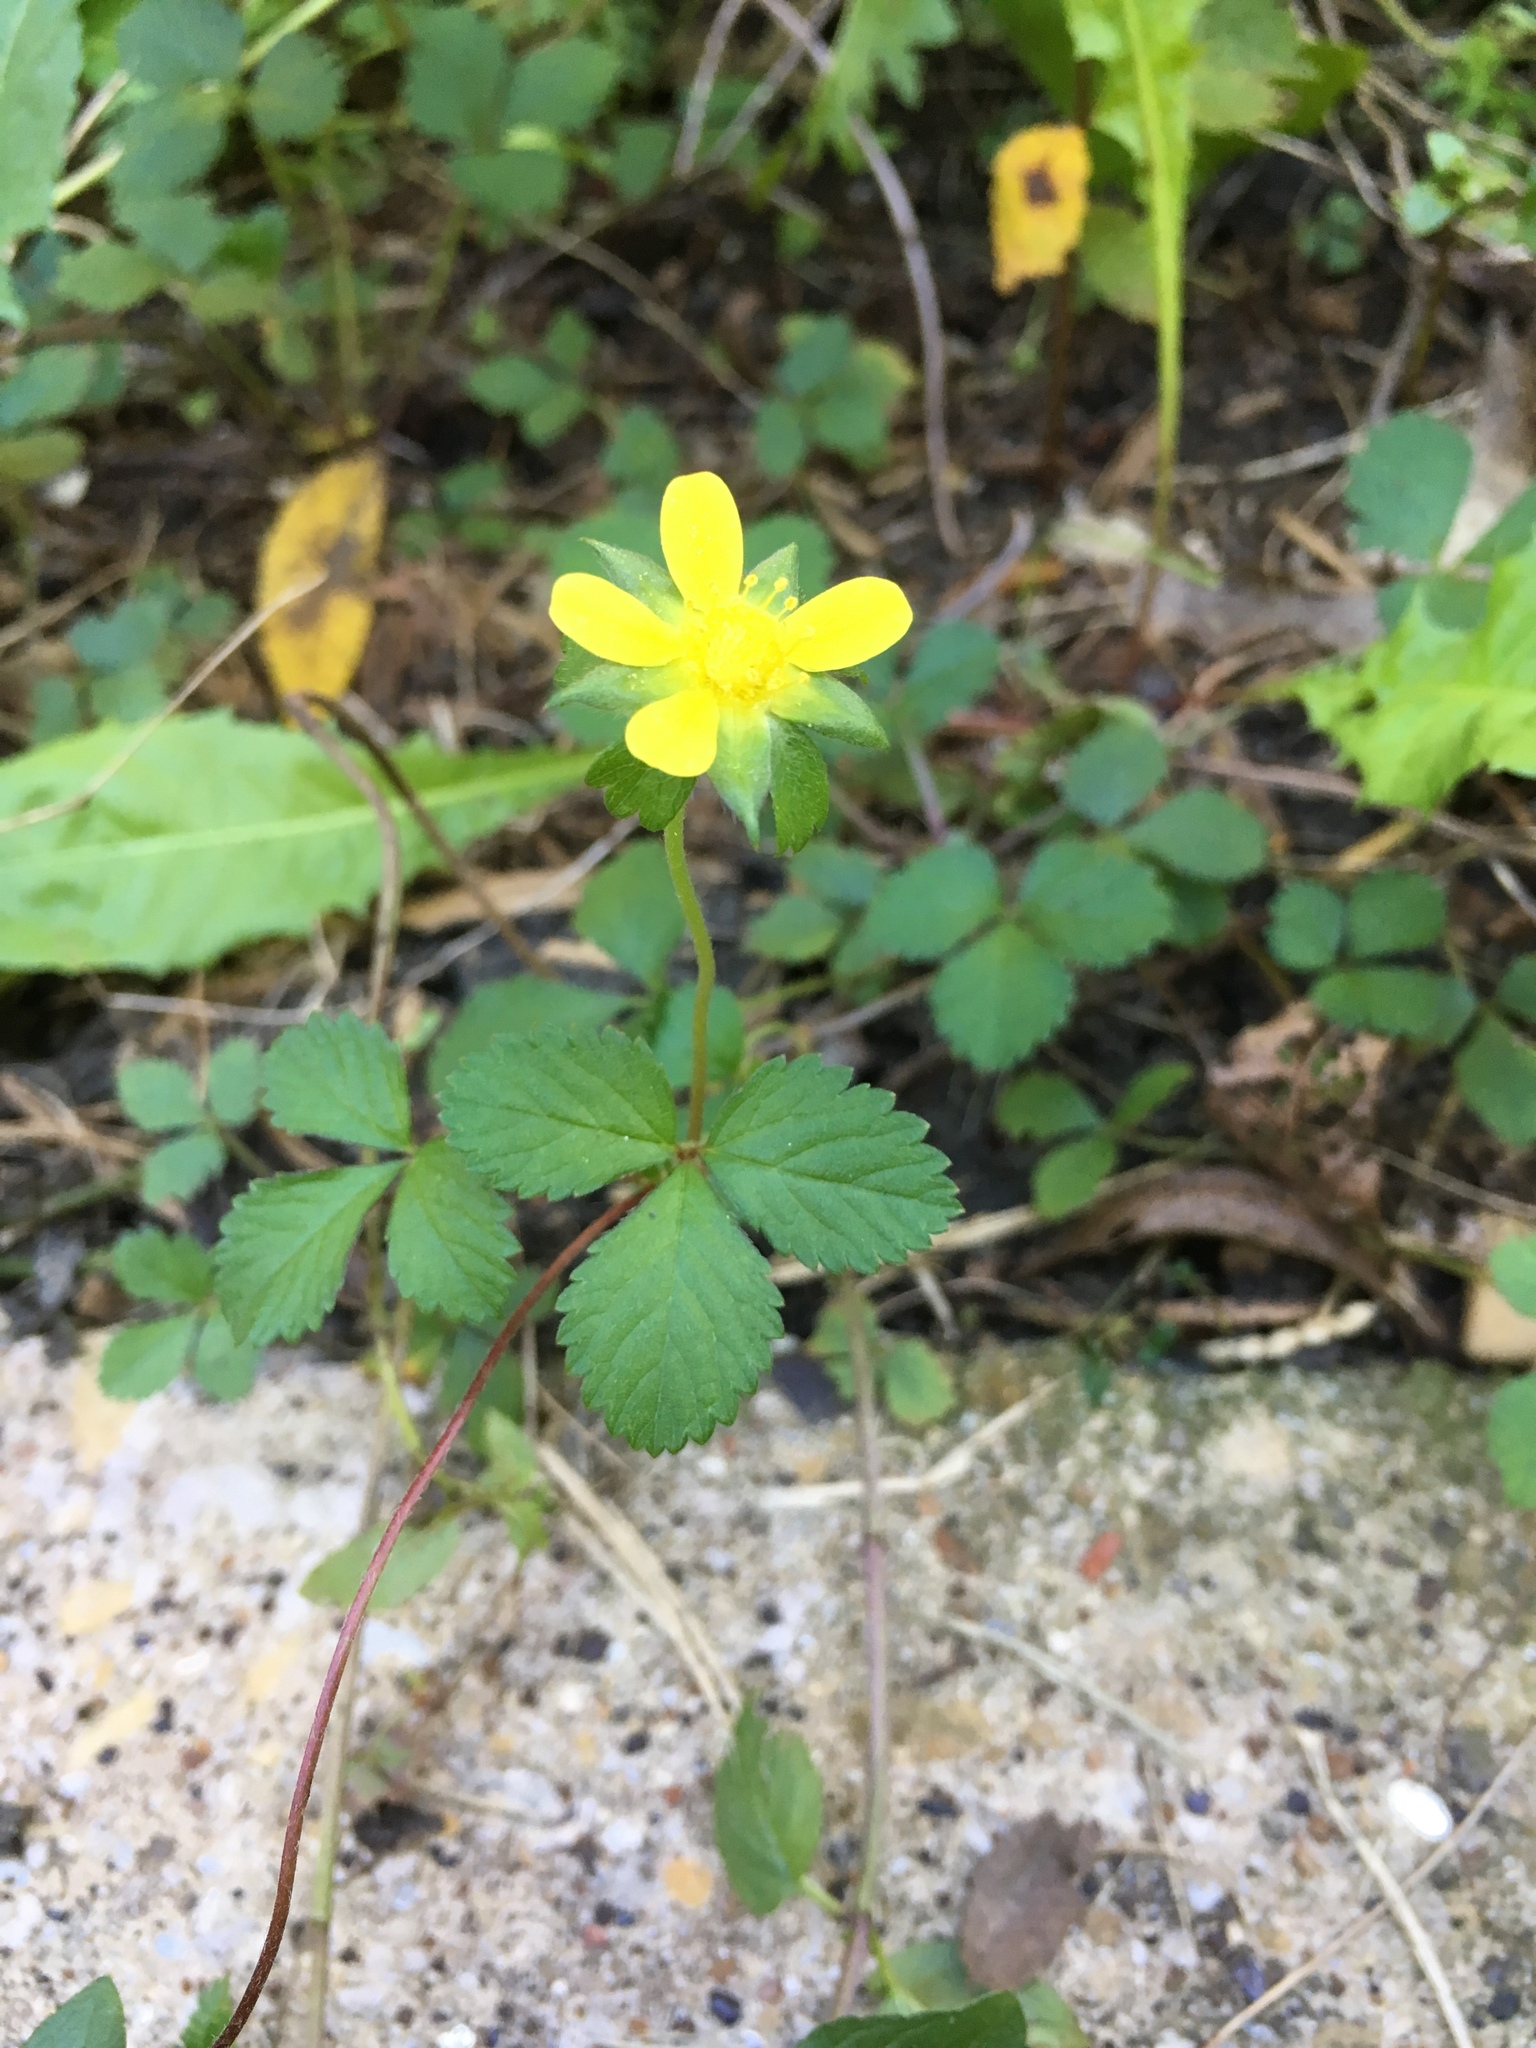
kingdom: Plantae
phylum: Tracheophyta
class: Magnoliopsida
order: Rosales
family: Rosaceae
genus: Potentilla
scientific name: Potentilla indica
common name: Yellow-flowered strawberry
